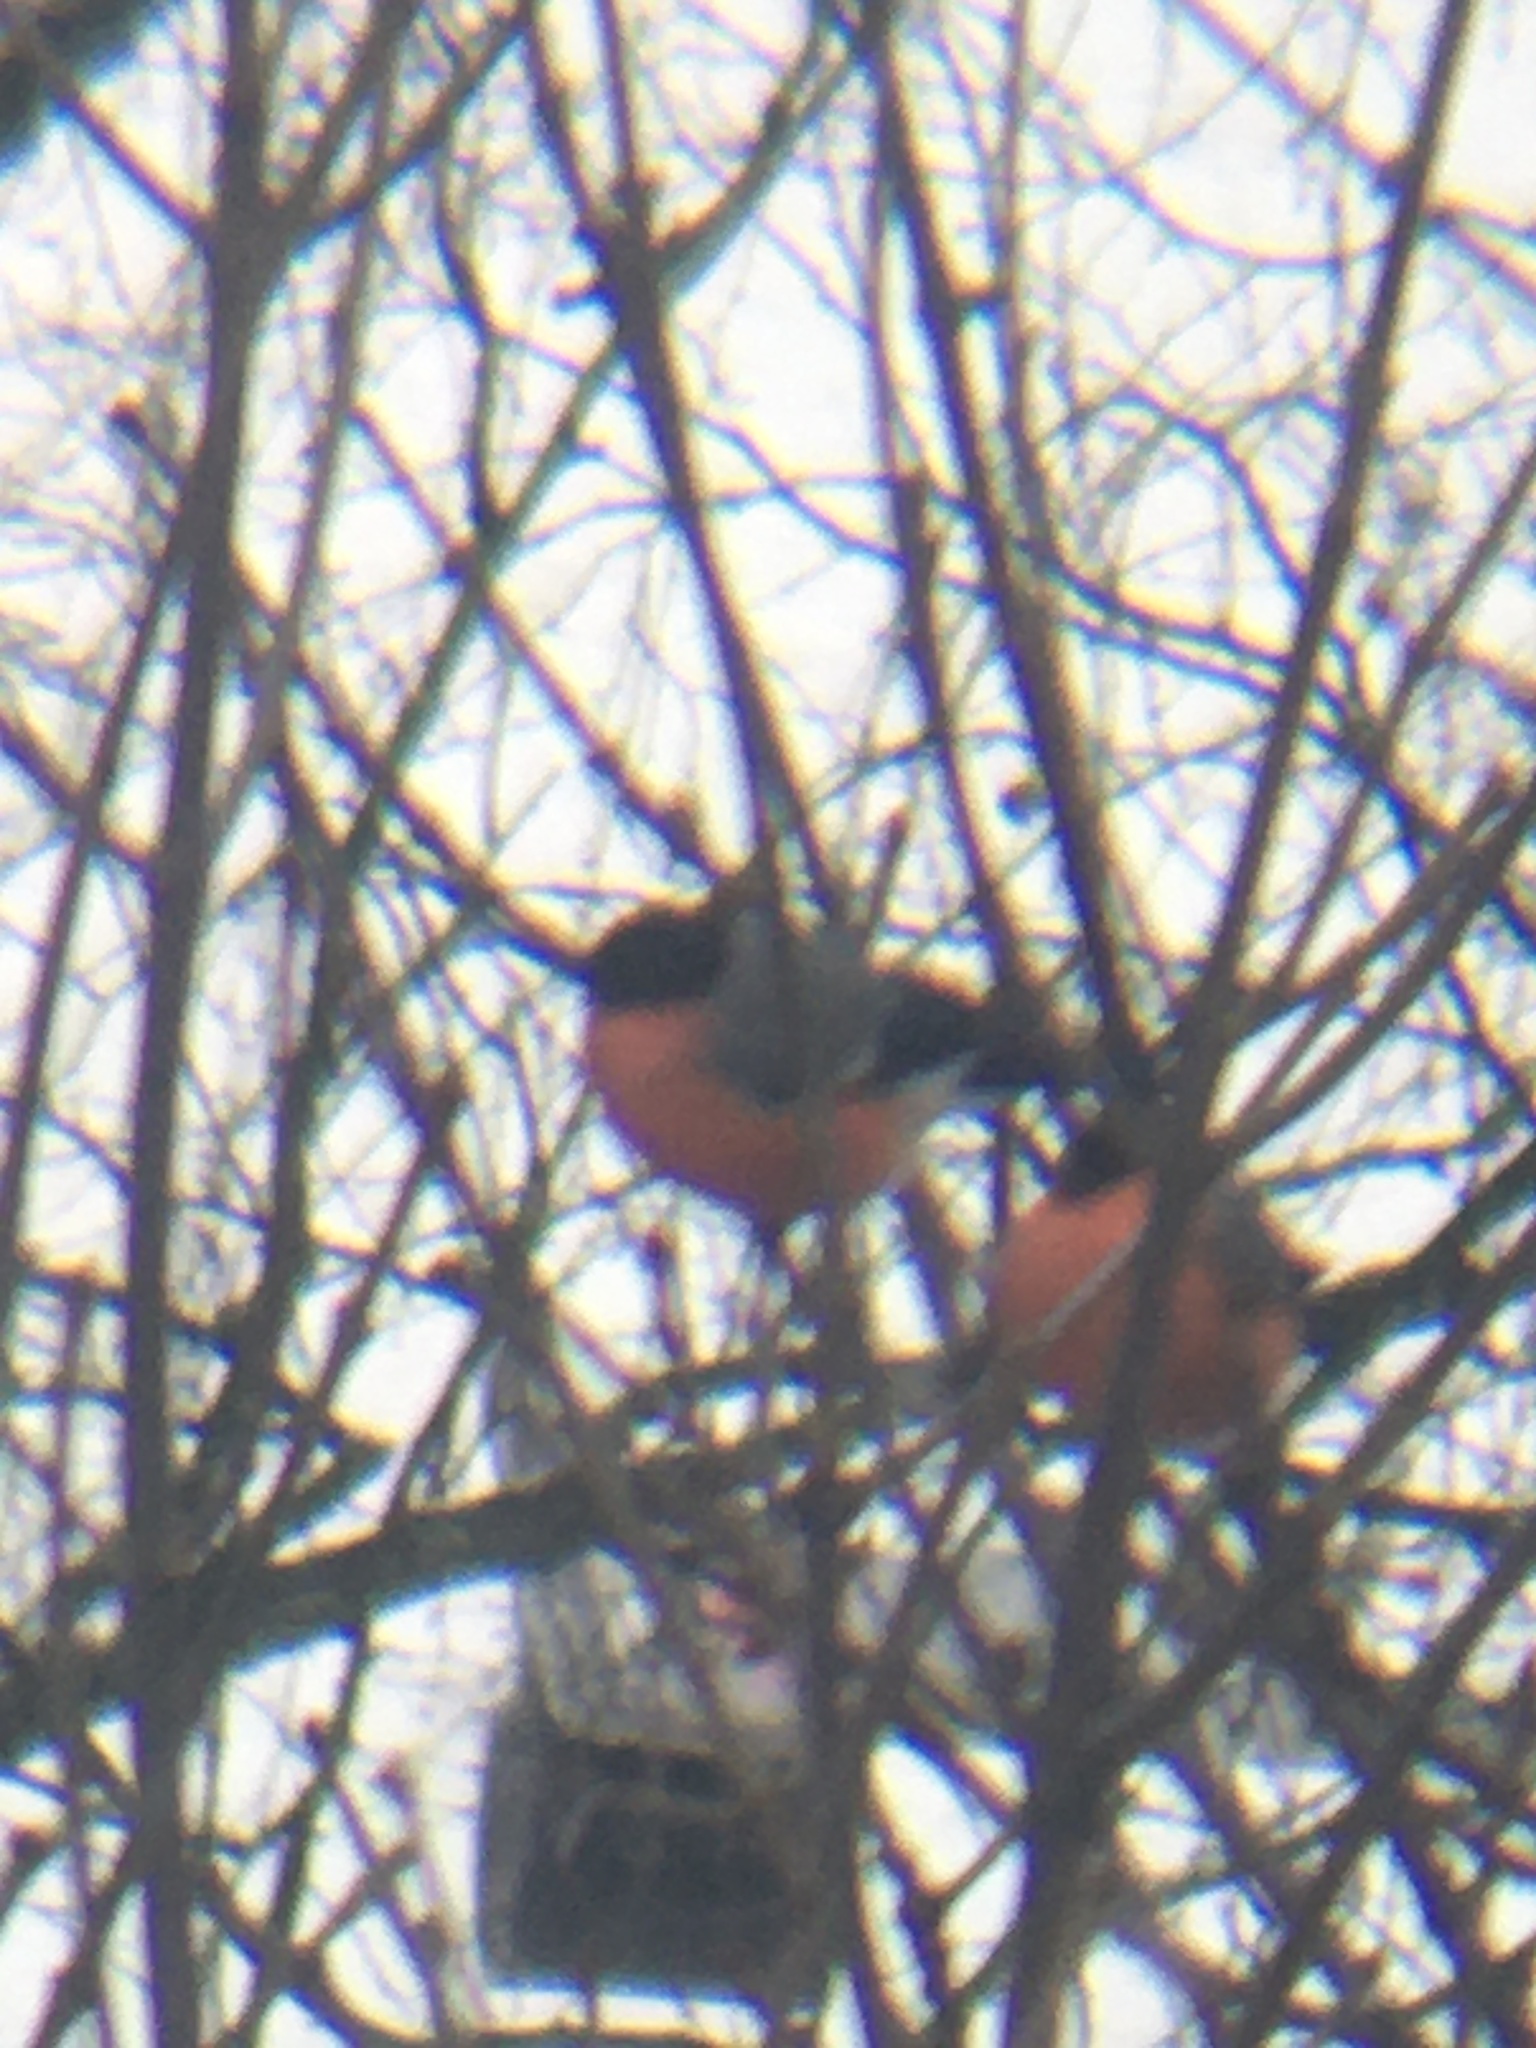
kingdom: Animalia
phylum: Chordata
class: Aves
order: Passeriformes
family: Fringillidae
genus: Pyrrhula
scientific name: Pyrrhula pyrrhula
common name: Eurasian bullfinch
